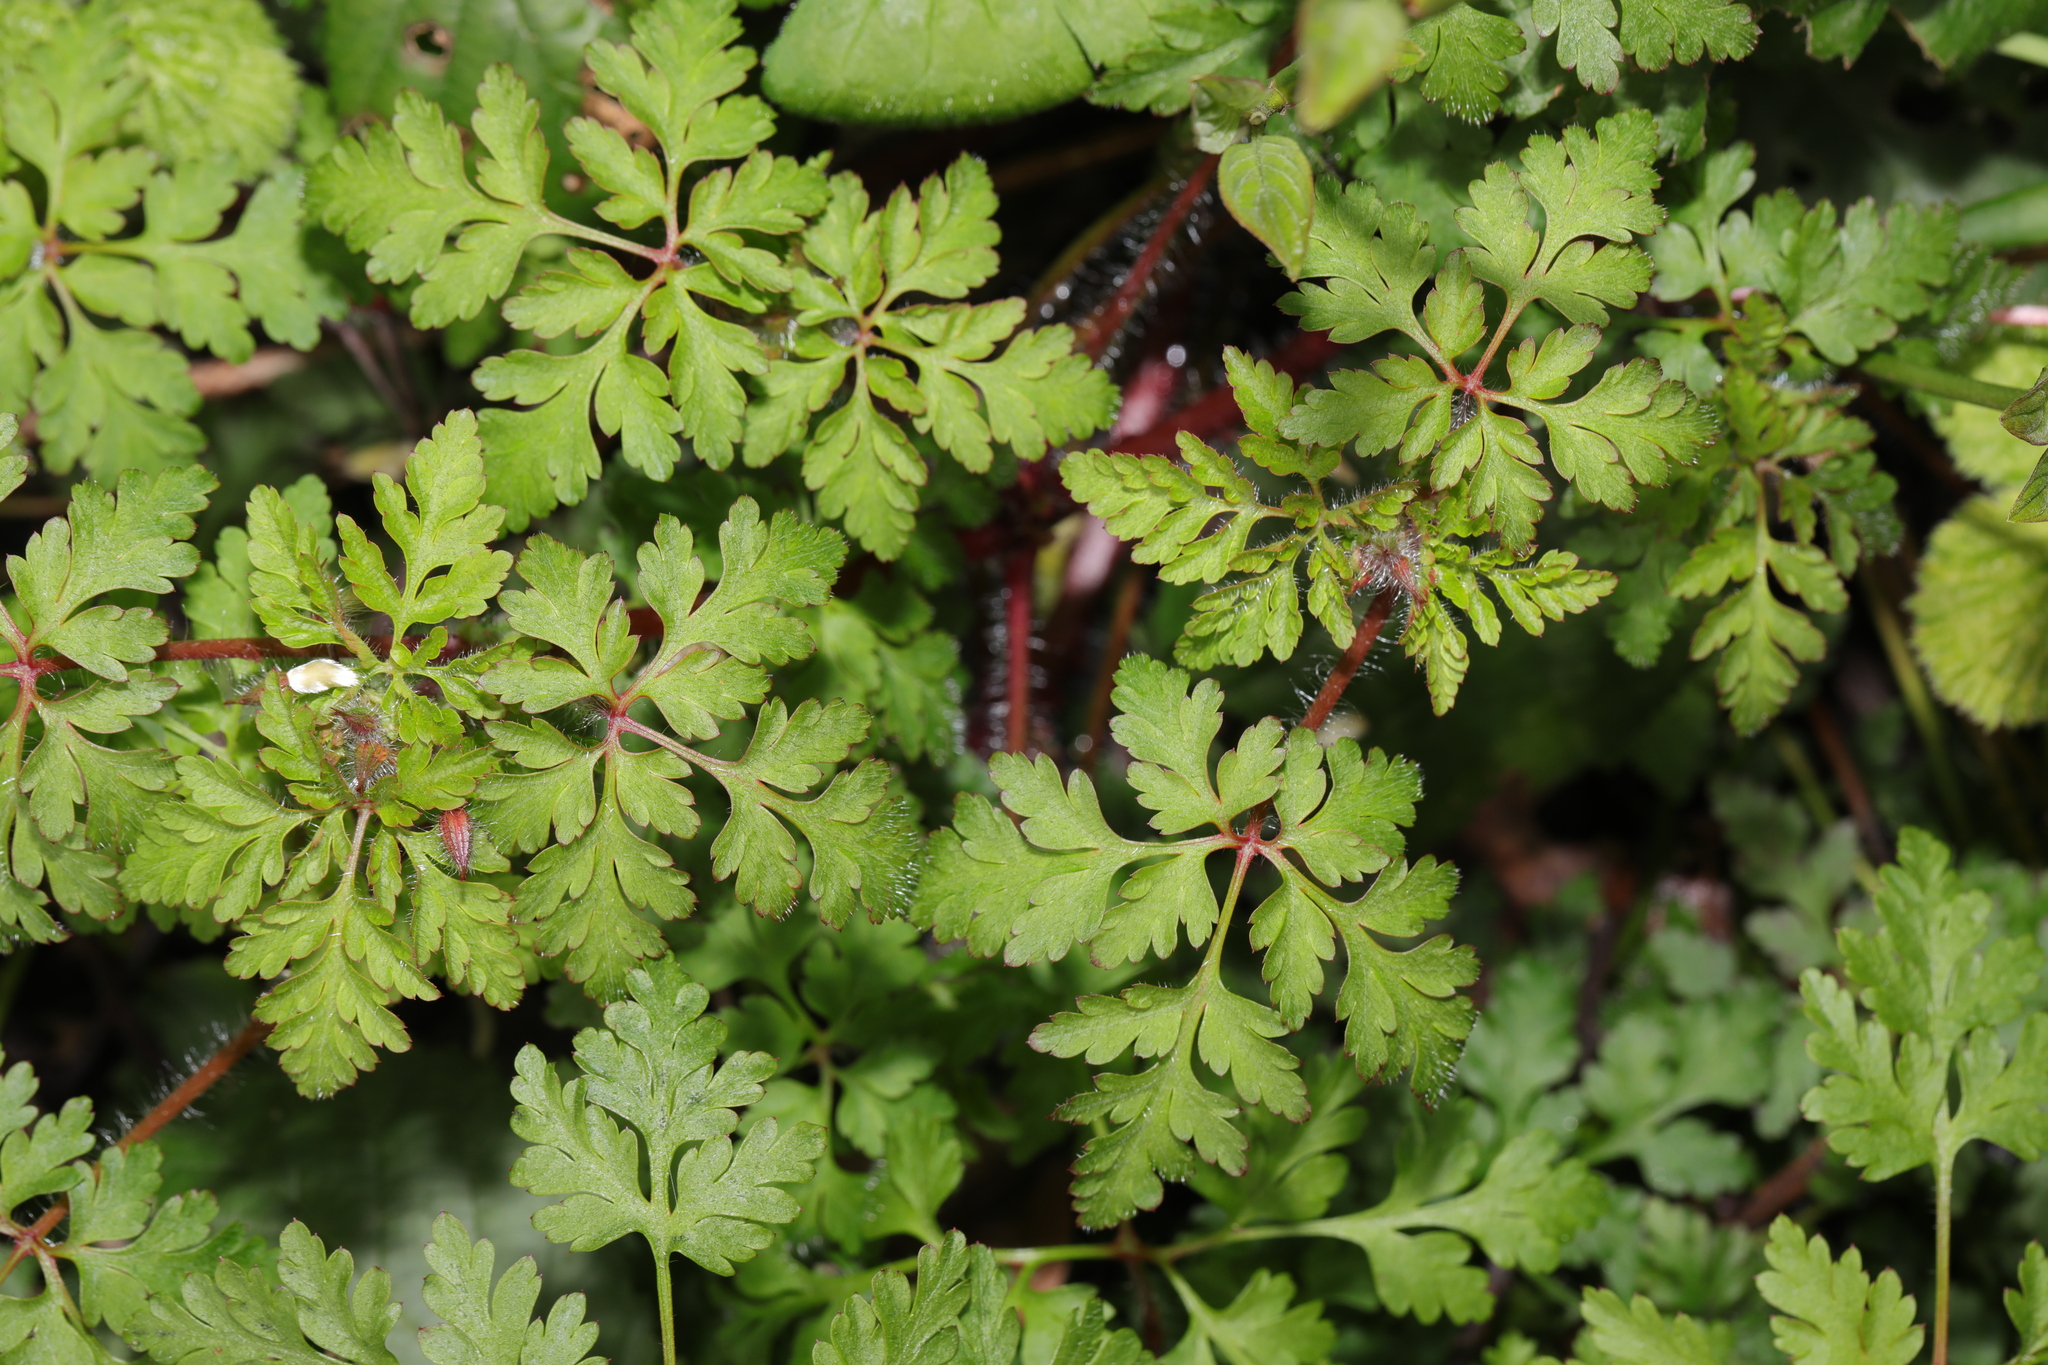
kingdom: Plantae
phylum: Tracheophyta
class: Magnoliopsida
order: Geraniales
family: Geraniaceae
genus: Geranium
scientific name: Geranium robertianum
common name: Herb-robert
